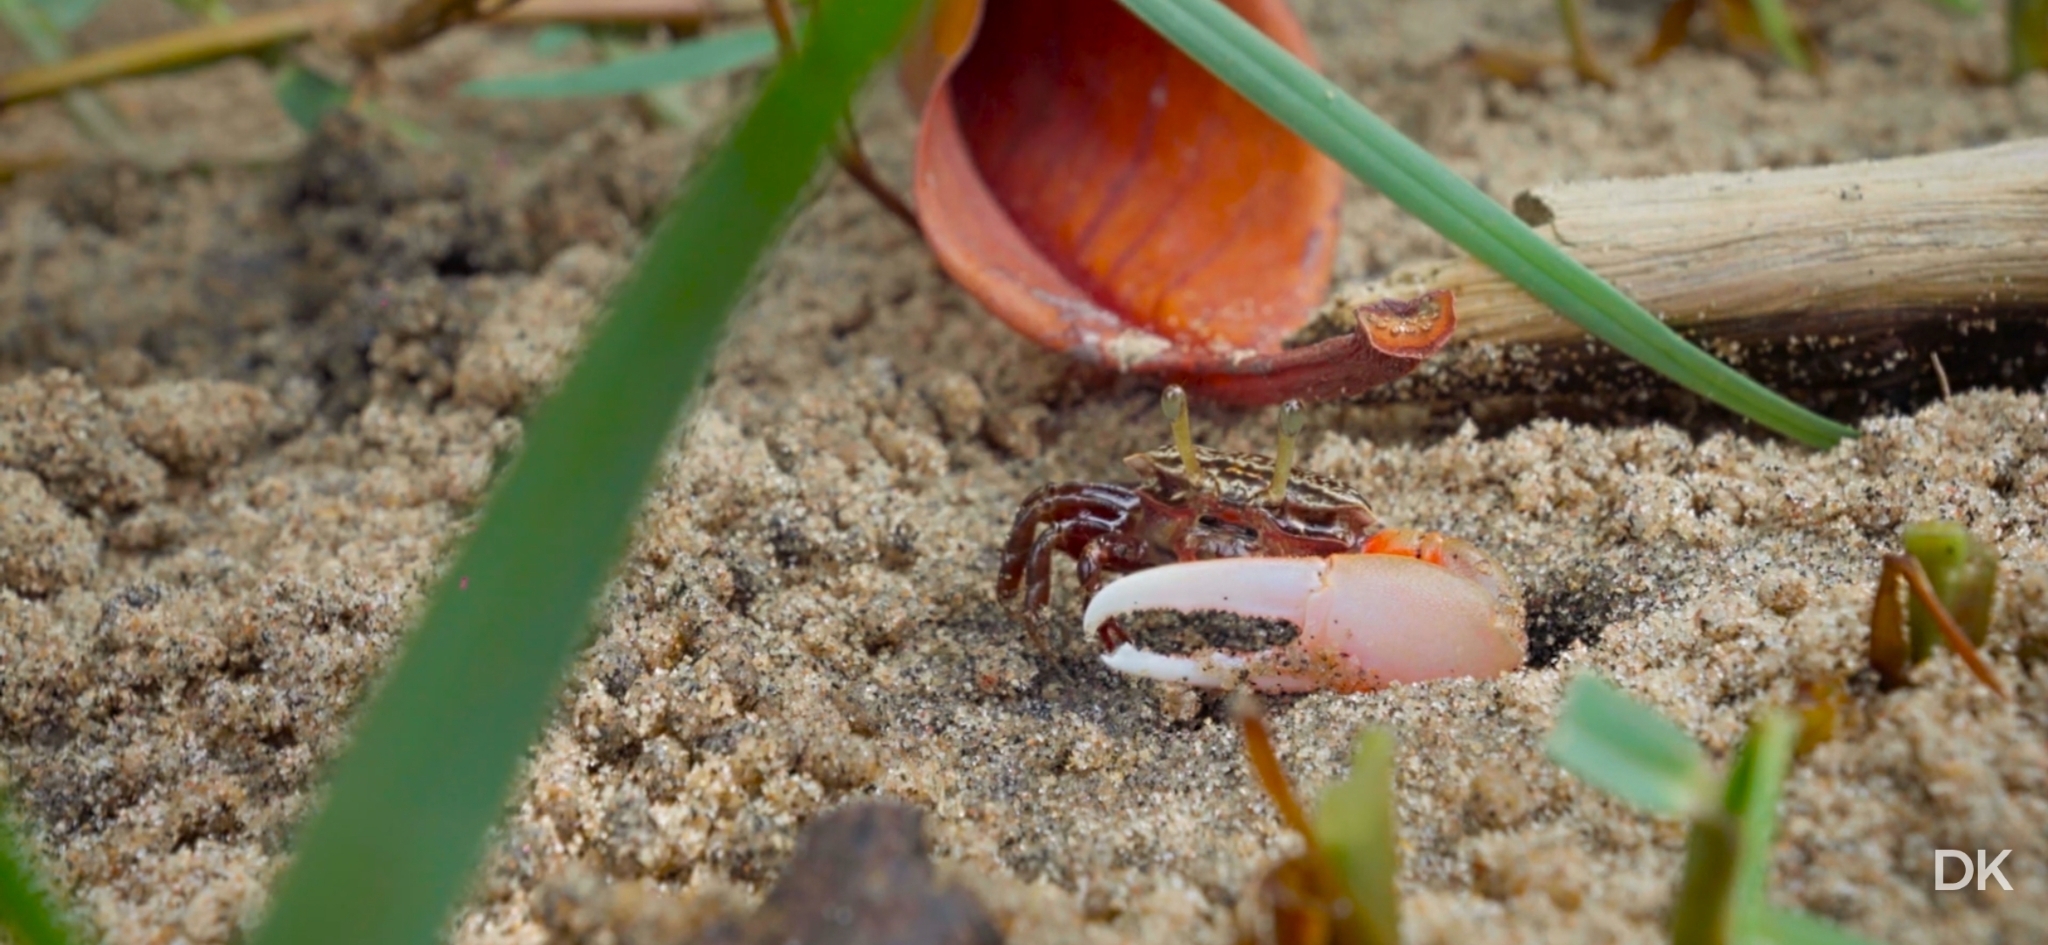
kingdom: Animalia
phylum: Arthropoda
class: Malacostraca
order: Decapoda
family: Ocypodidae
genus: Austruca
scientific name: Austruca annulipes
